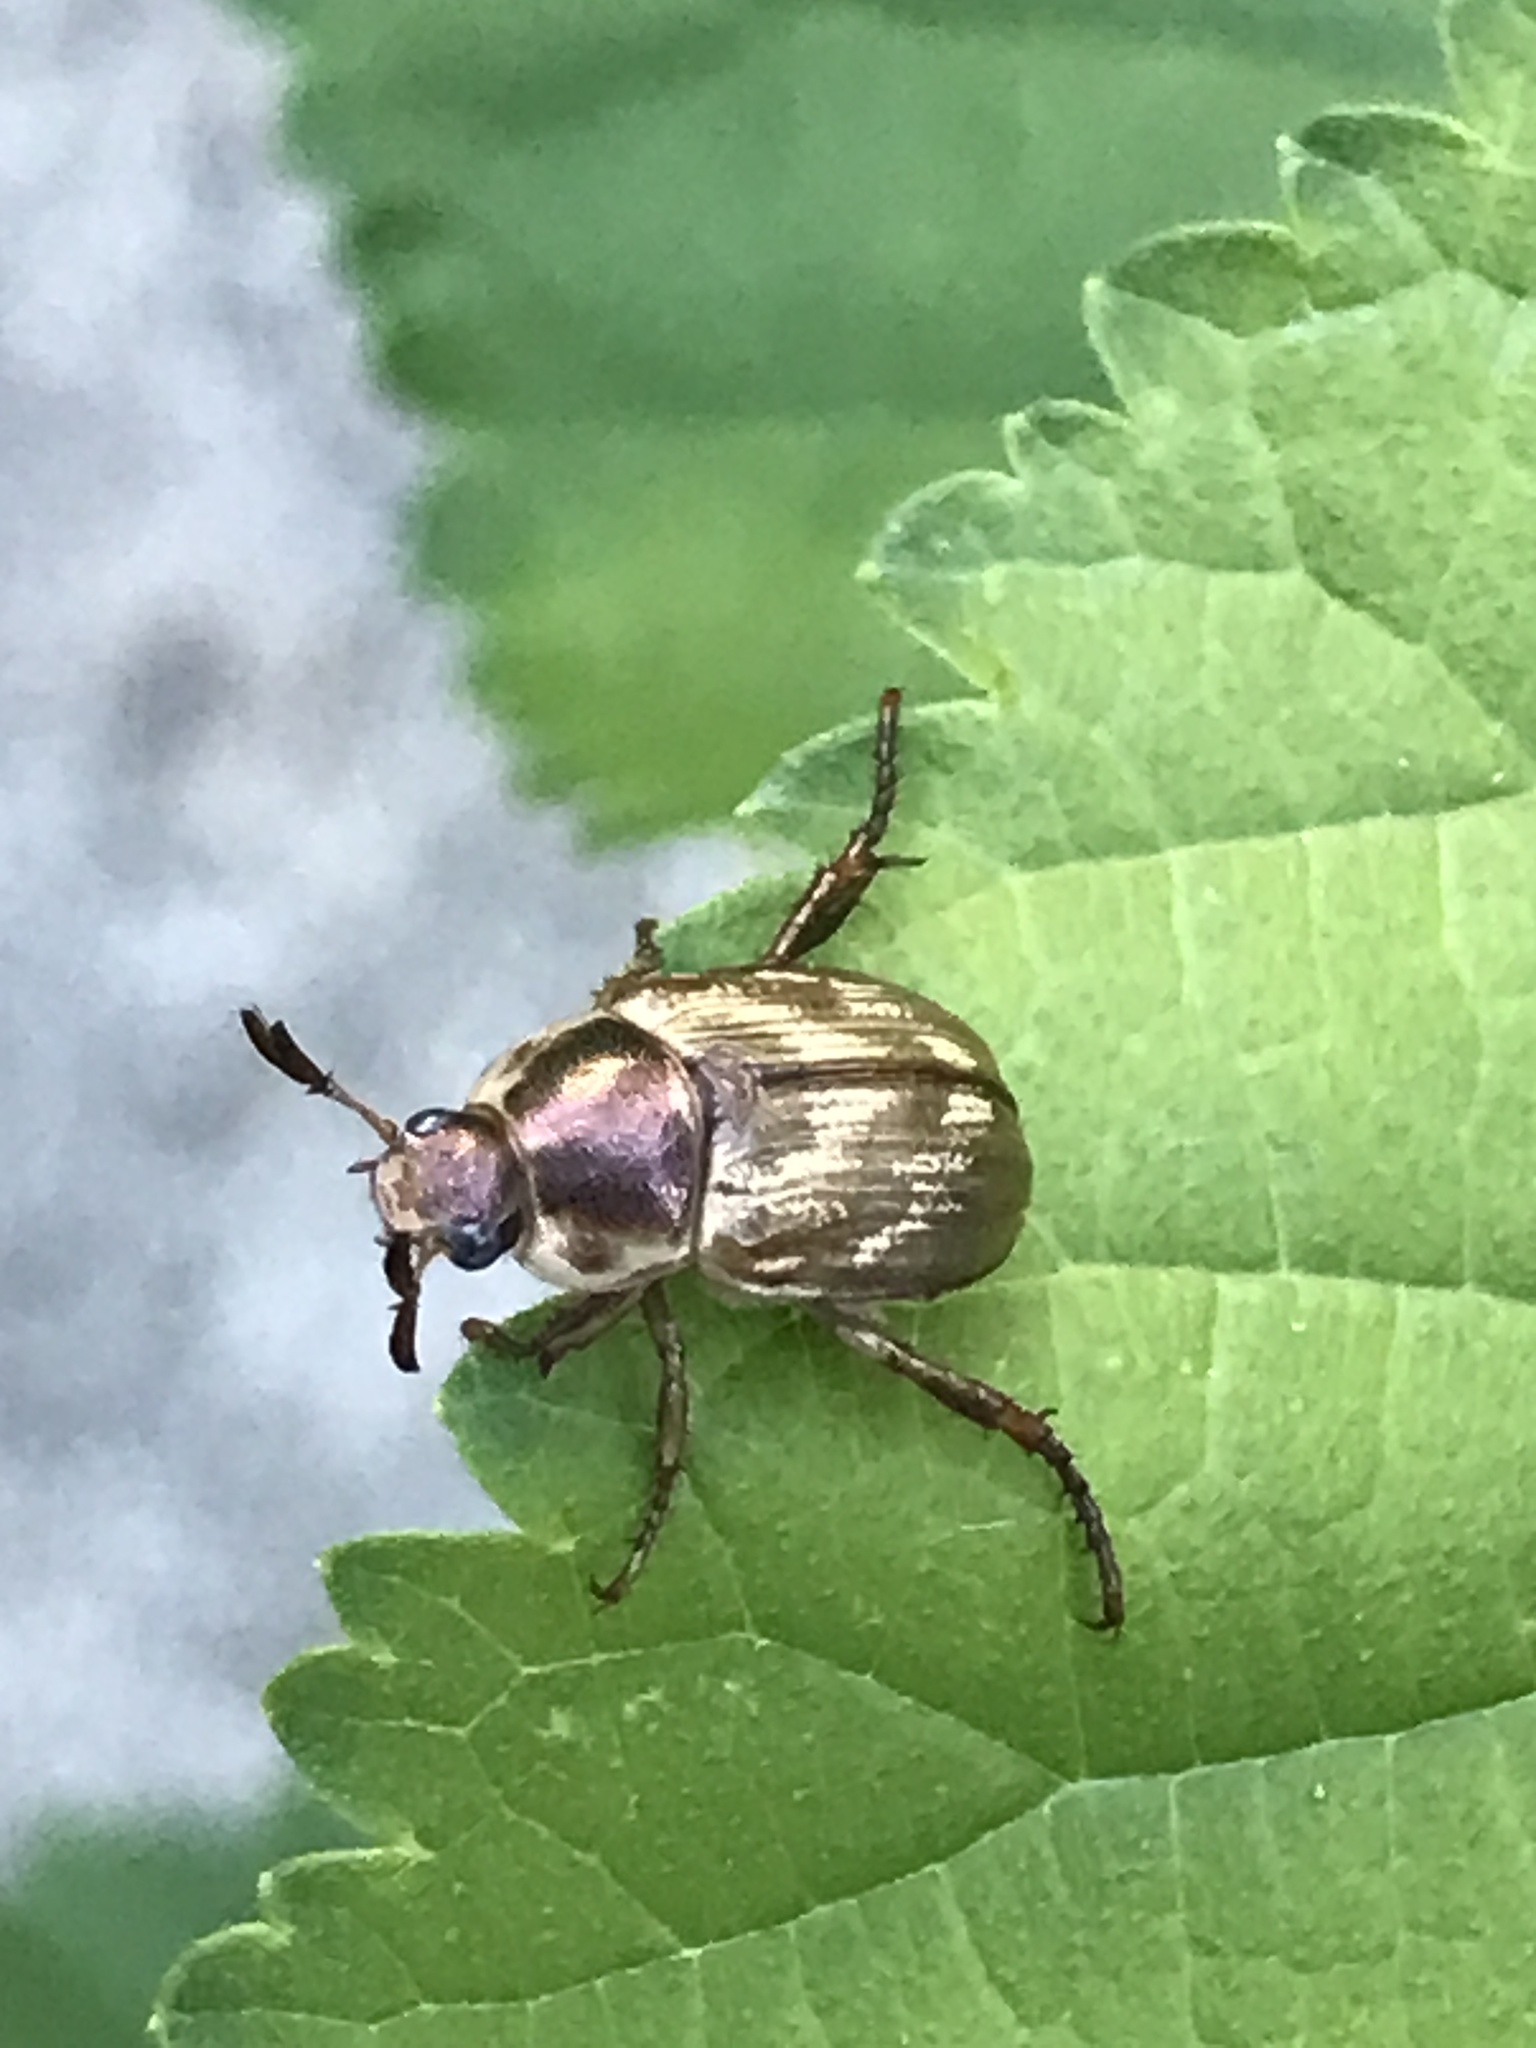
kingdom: Animalia
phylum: Arthropoda
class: Insecta
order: Coleoptera
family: Scarabaeidae
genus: Exomala
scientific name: Exomala orientalis
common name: Oriental beetle
